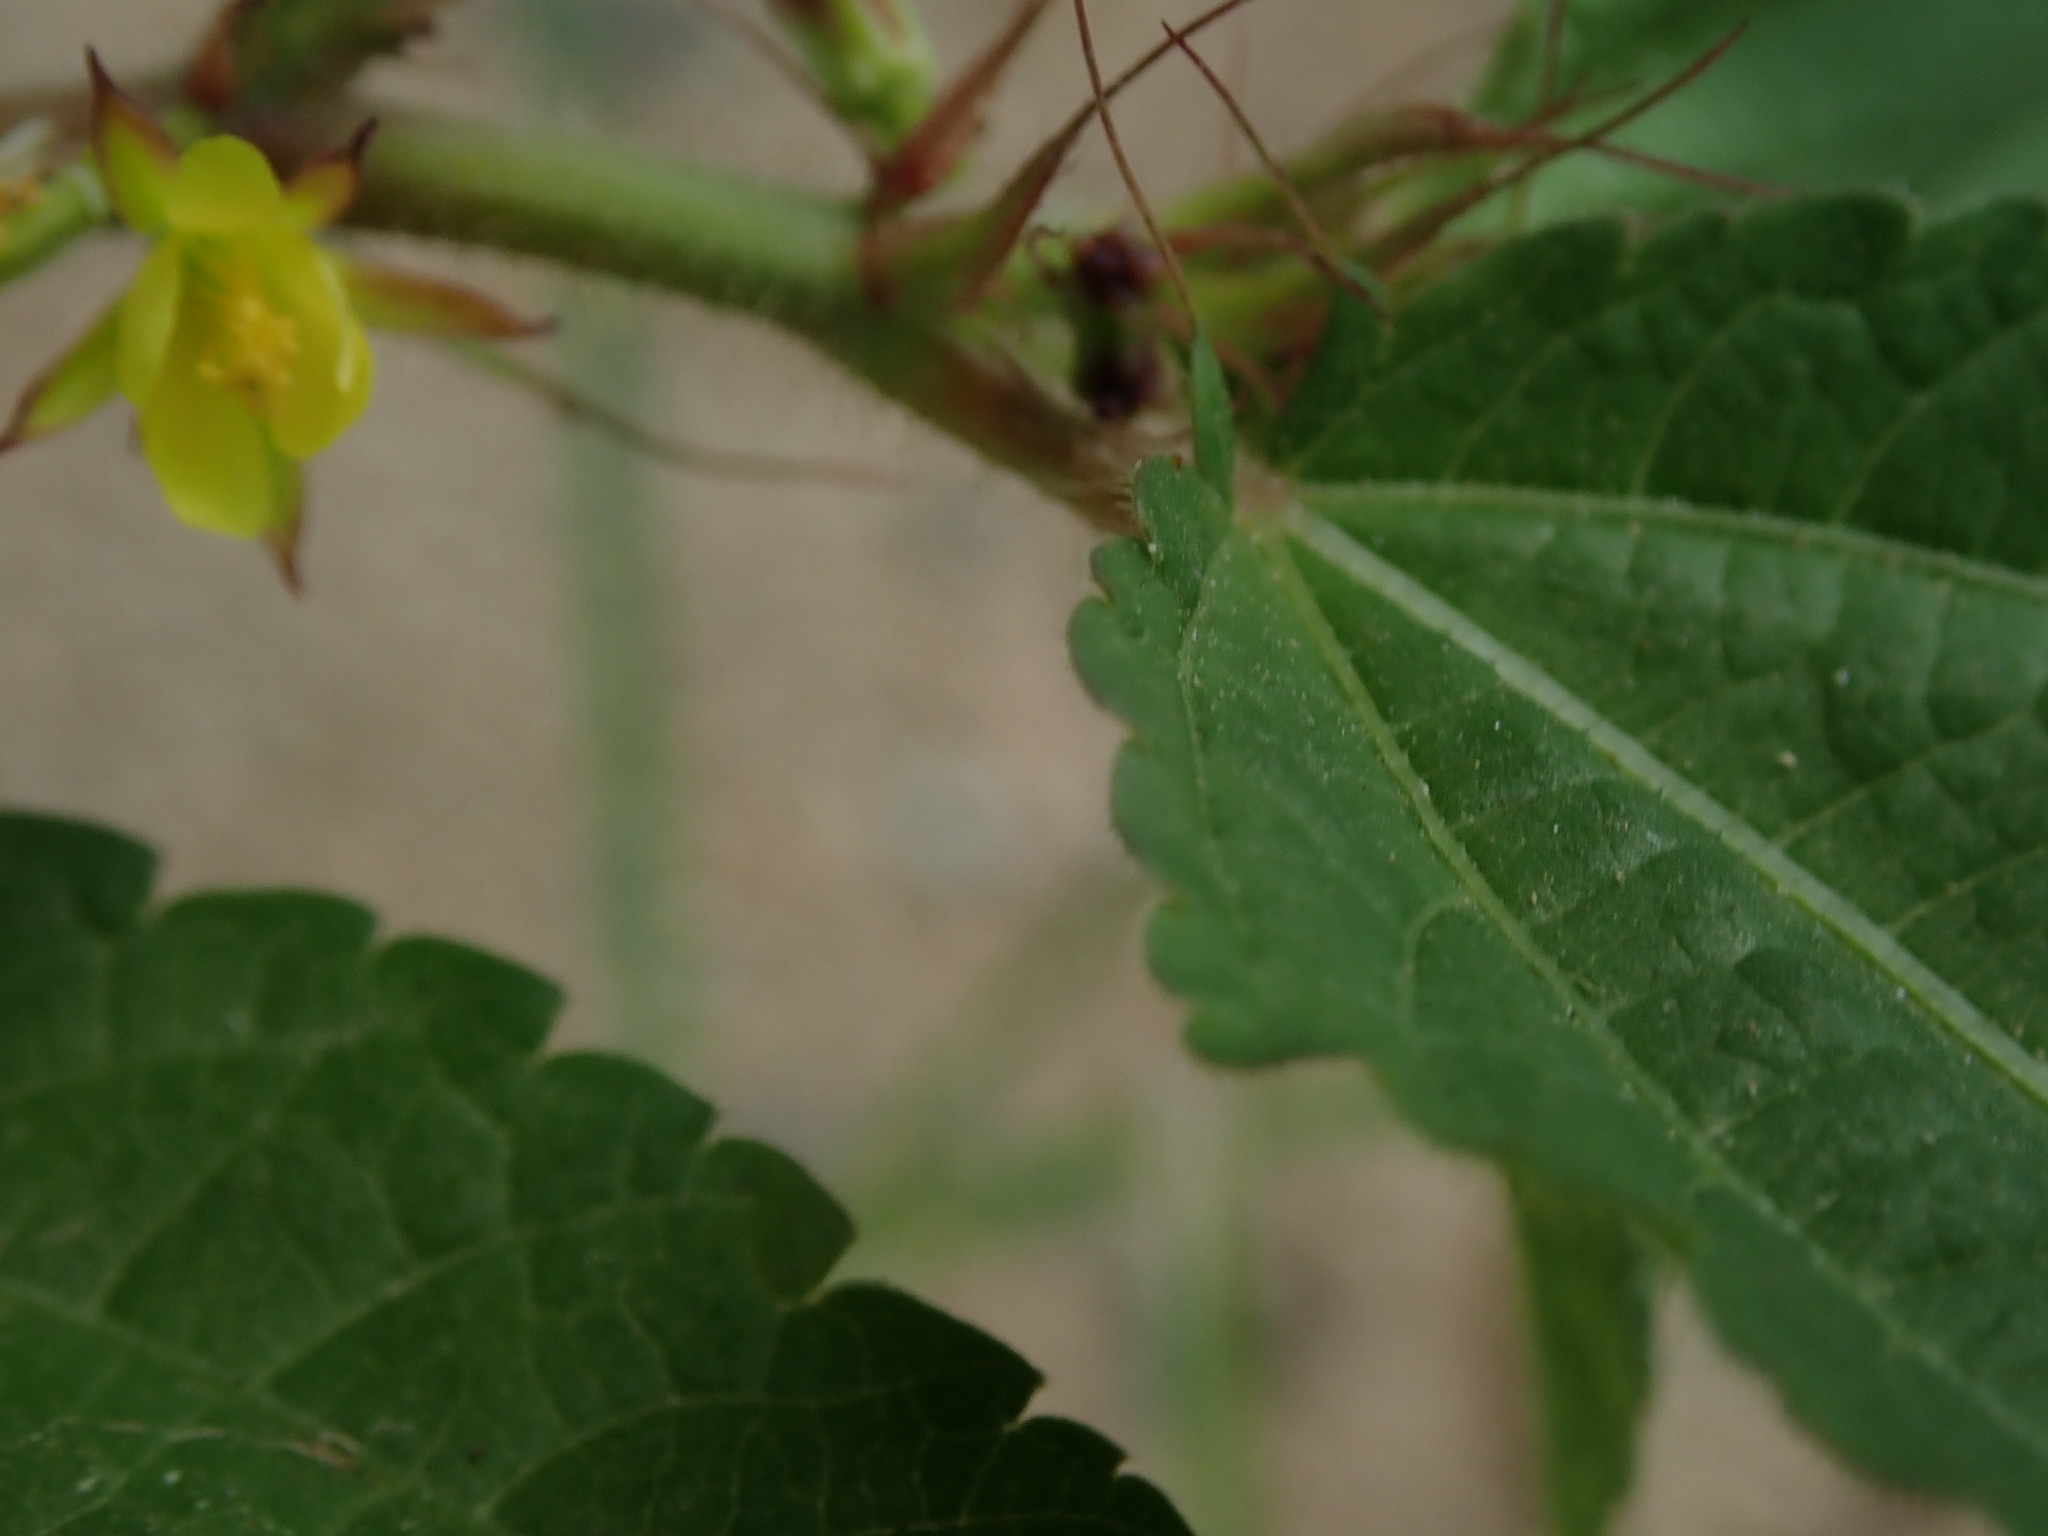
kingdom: Plantae
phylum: Tracheophyta
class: Magnoliopsida
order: Malvales
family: Malvaceae
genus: Corchorus
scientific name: Corchorus aestuans
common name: Jute
